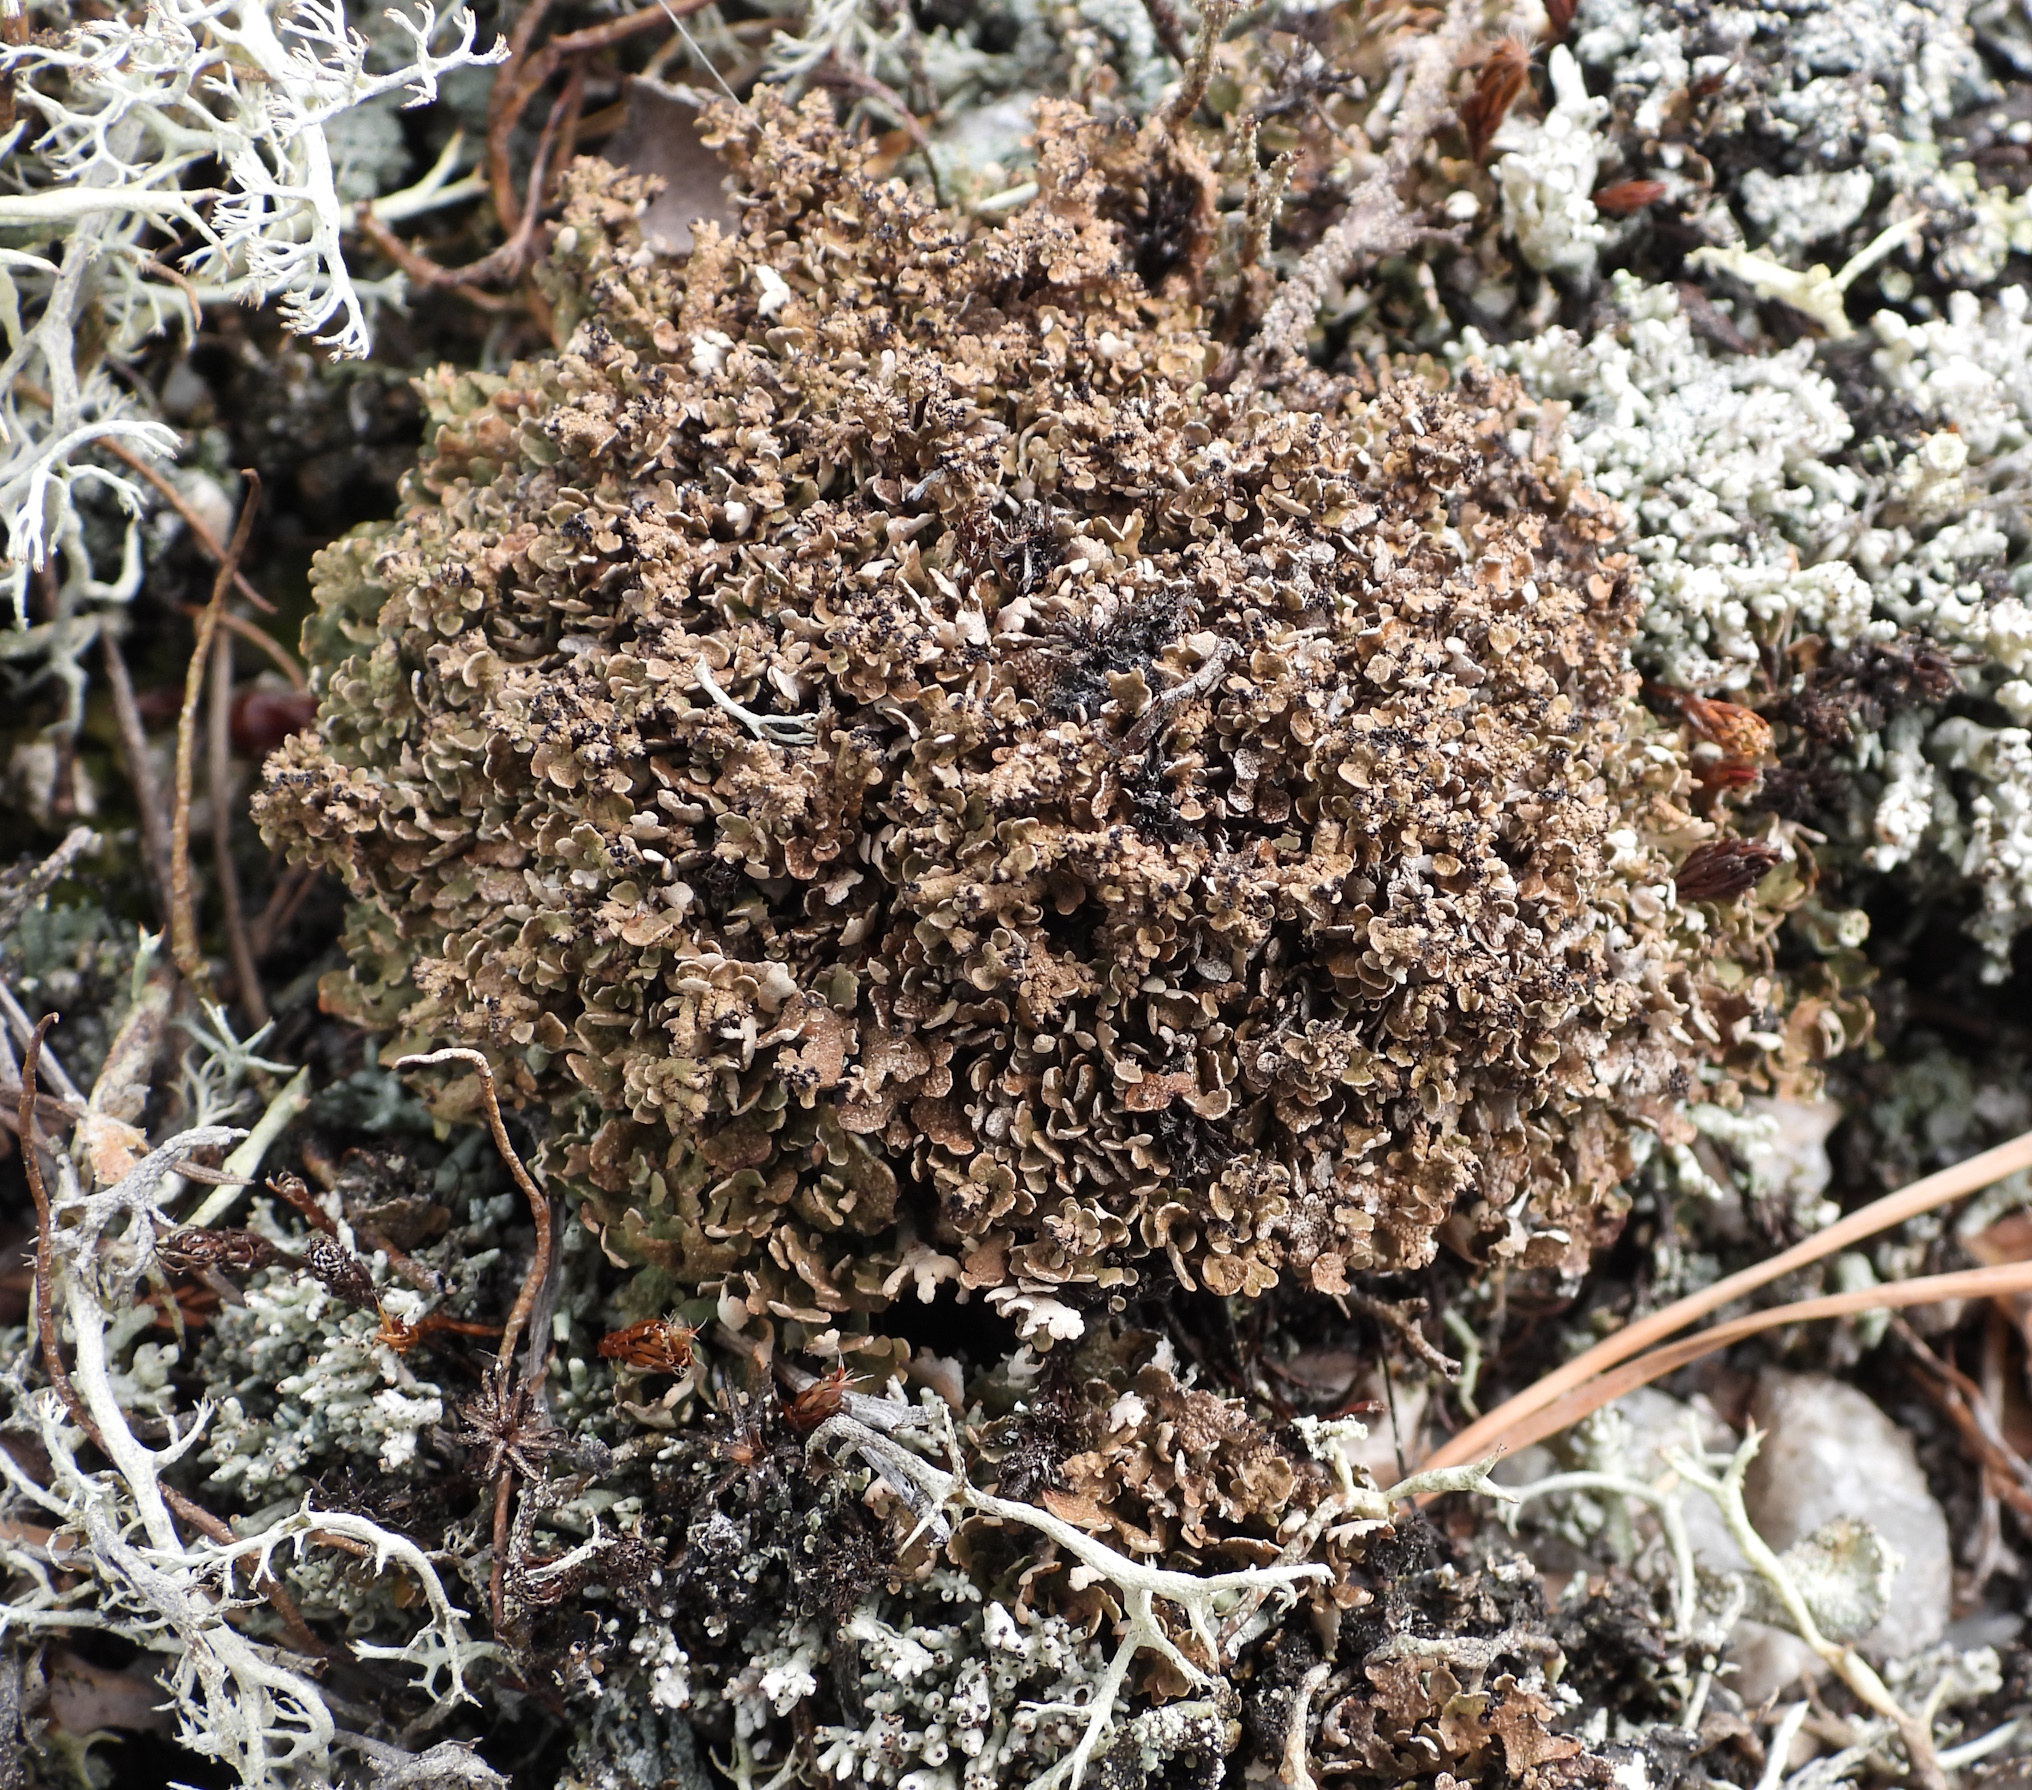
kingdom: Fungi
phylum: Ascomycota
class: Lecanoromycetes
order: Lecanorales
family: Cladoniaceae
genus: Cladonia
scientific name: Cladonia strepsilis
